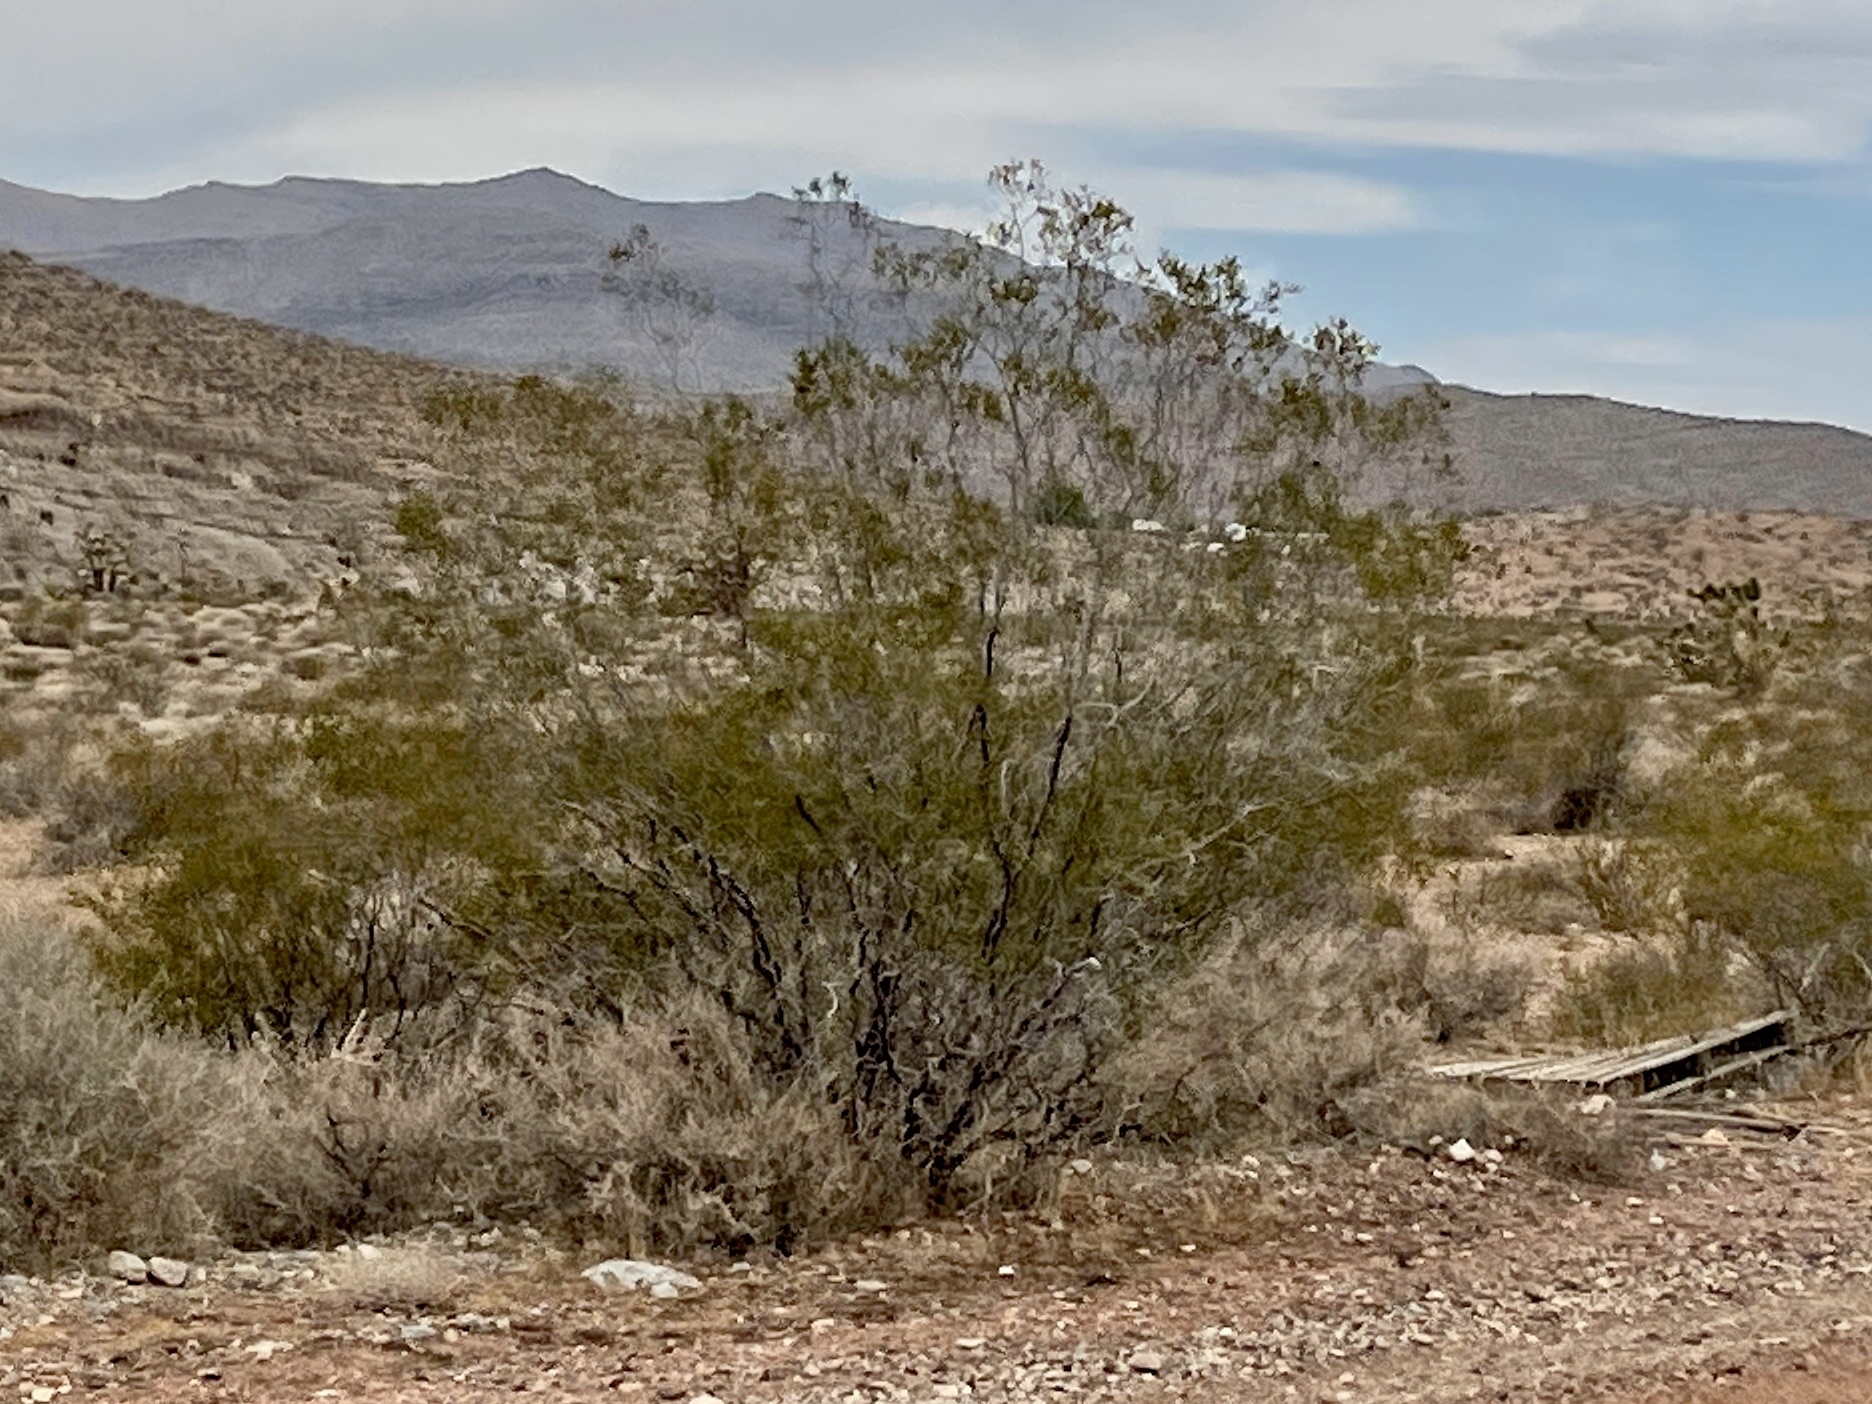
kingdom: Plantae
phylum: Tracheophyta
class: Magnoliopsida
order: Zygophyllales
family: Zygophyllaceae
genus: Larrea
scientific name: Larrea tridentata
